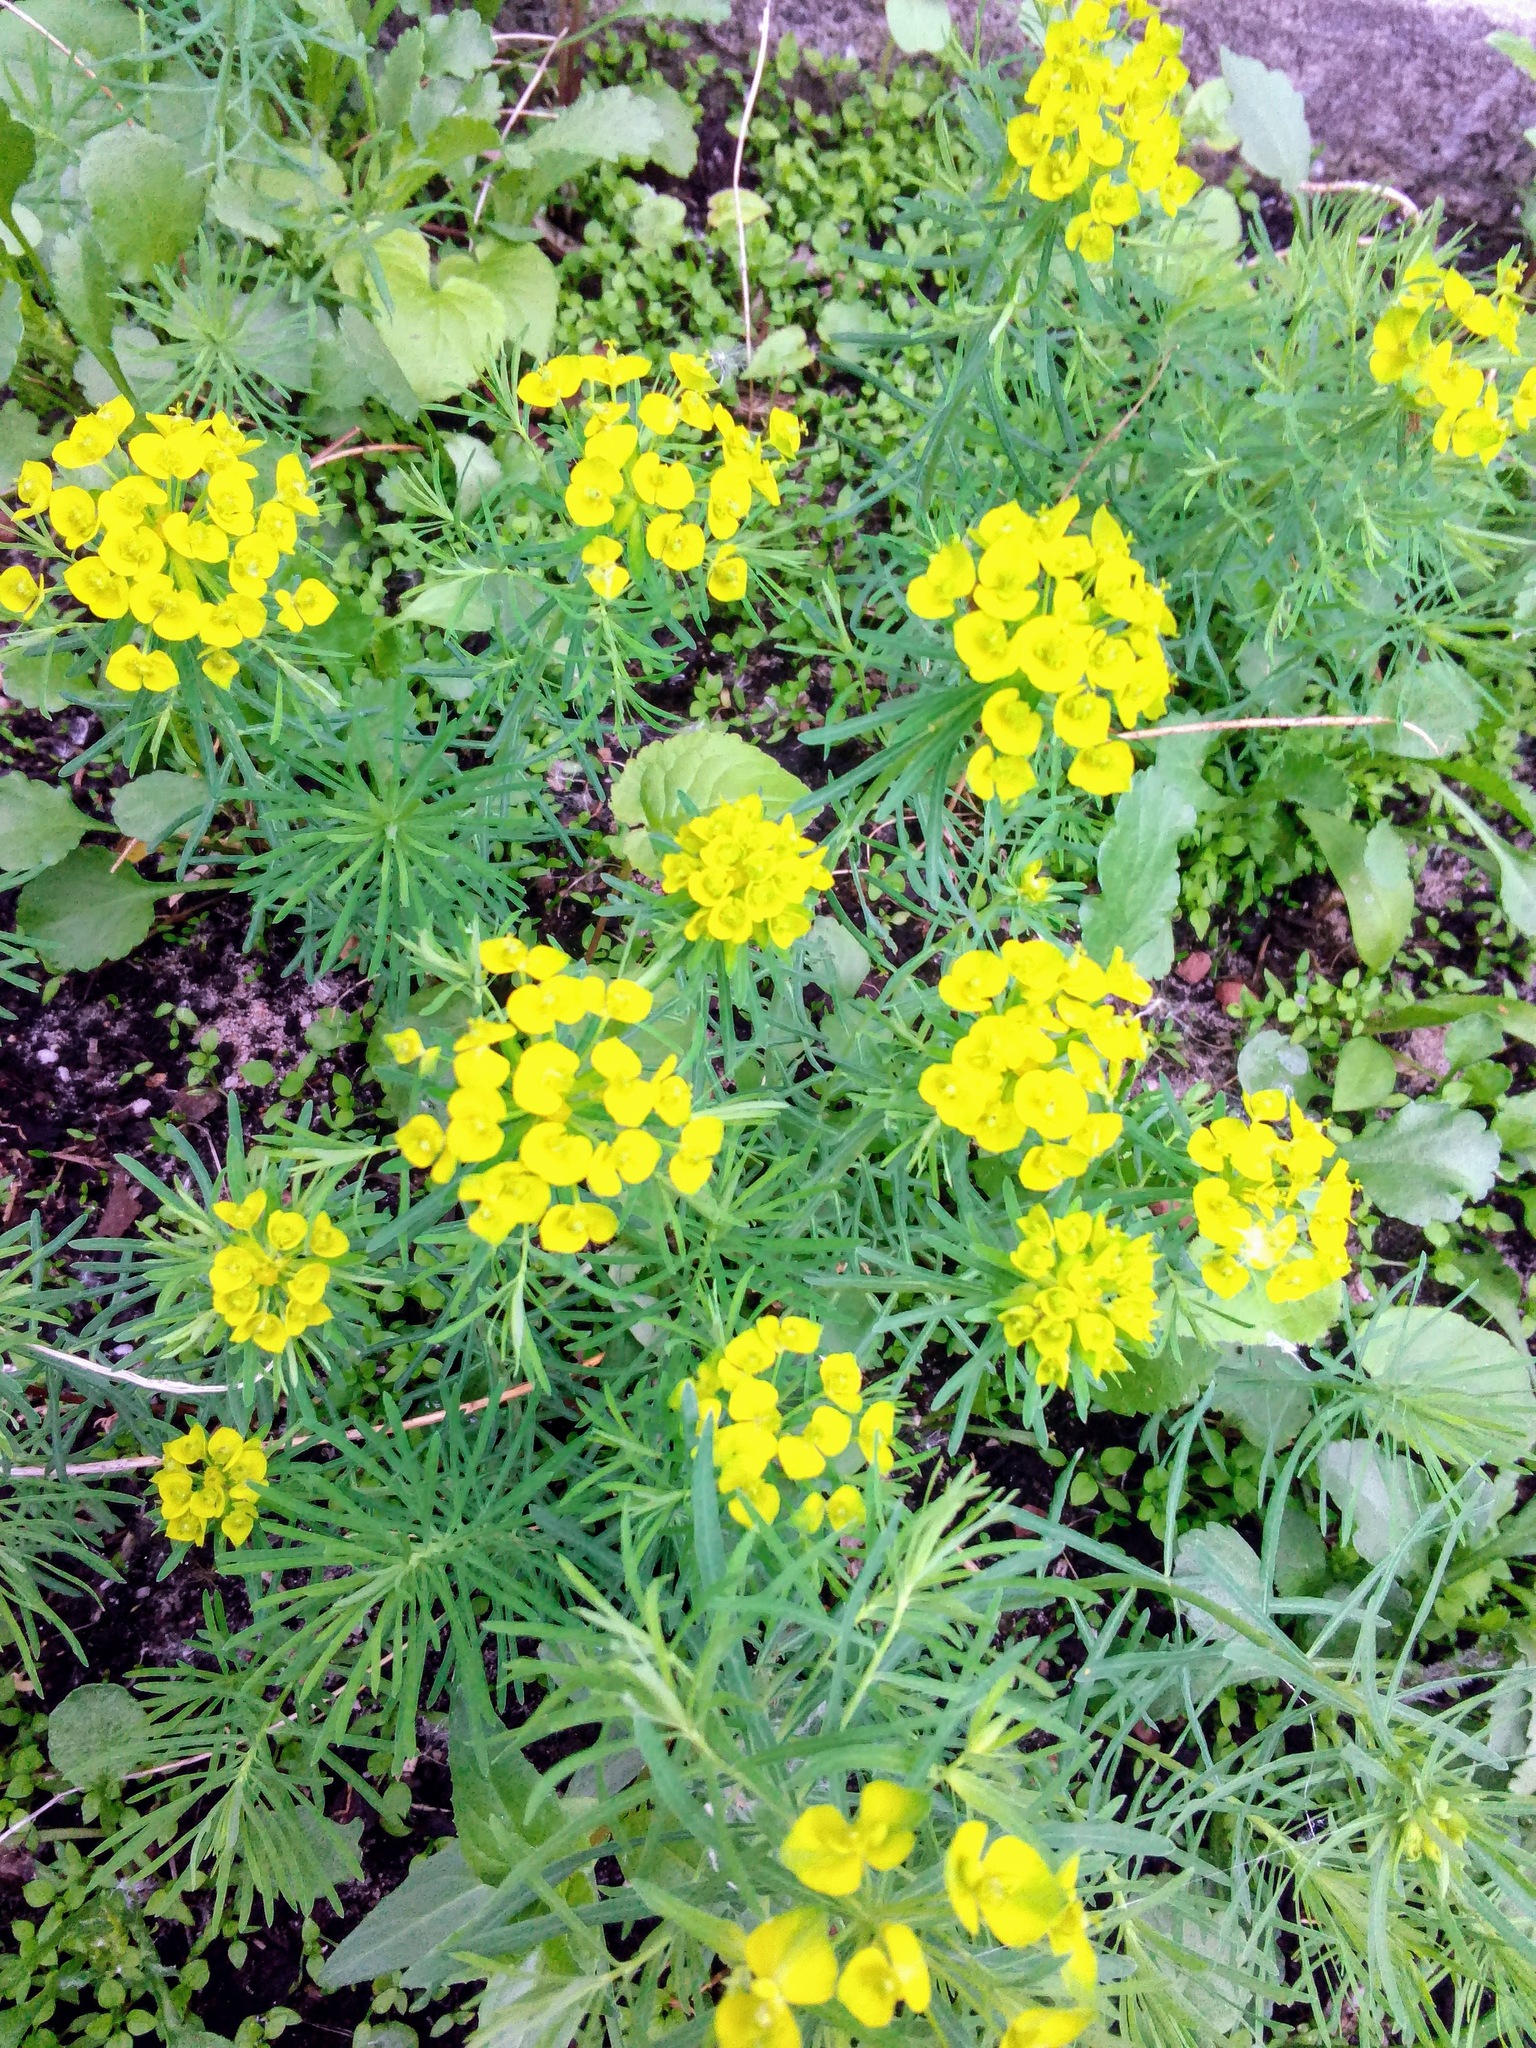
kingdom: Plantae
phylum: Tracheophyta
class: Magnoliopsida
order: Malpighiales
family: Euphorbiaceae
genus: Euphorbia
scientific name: Euphorbia cyparissias
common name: Cypress spurge
